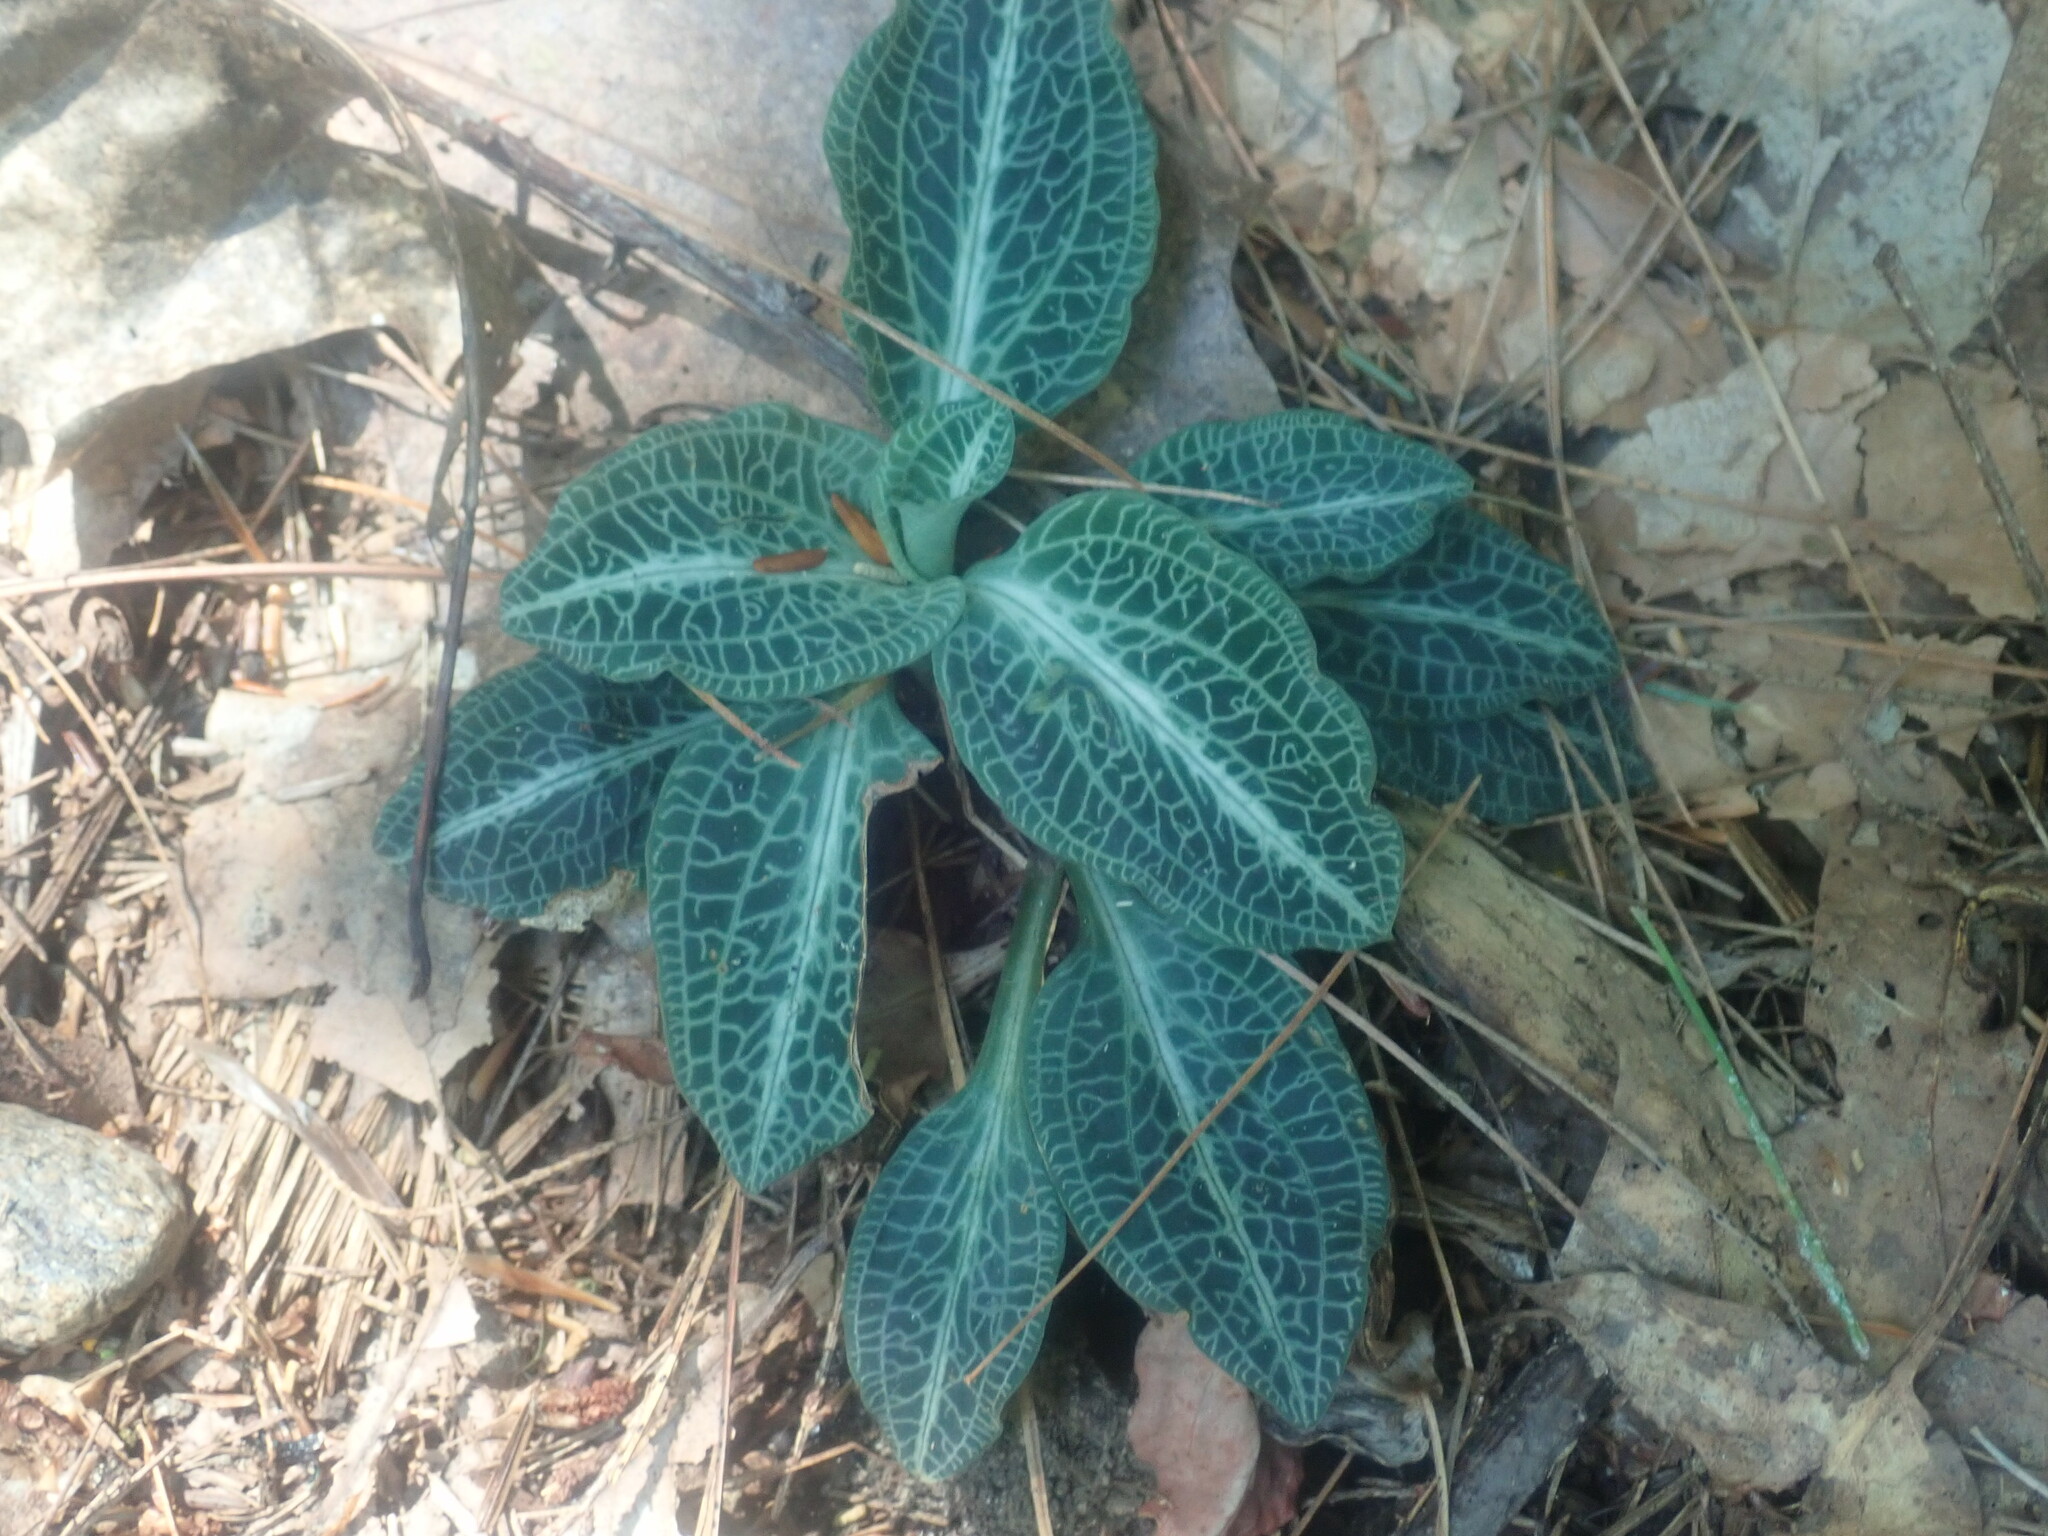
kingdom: Plantae
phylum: Tracheophyta
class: Liliopsida
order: Asparagales
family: Orchidaceae
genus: Goodyera
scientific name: Goodyera pubescens
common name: Downy rattlesnake-plantain
